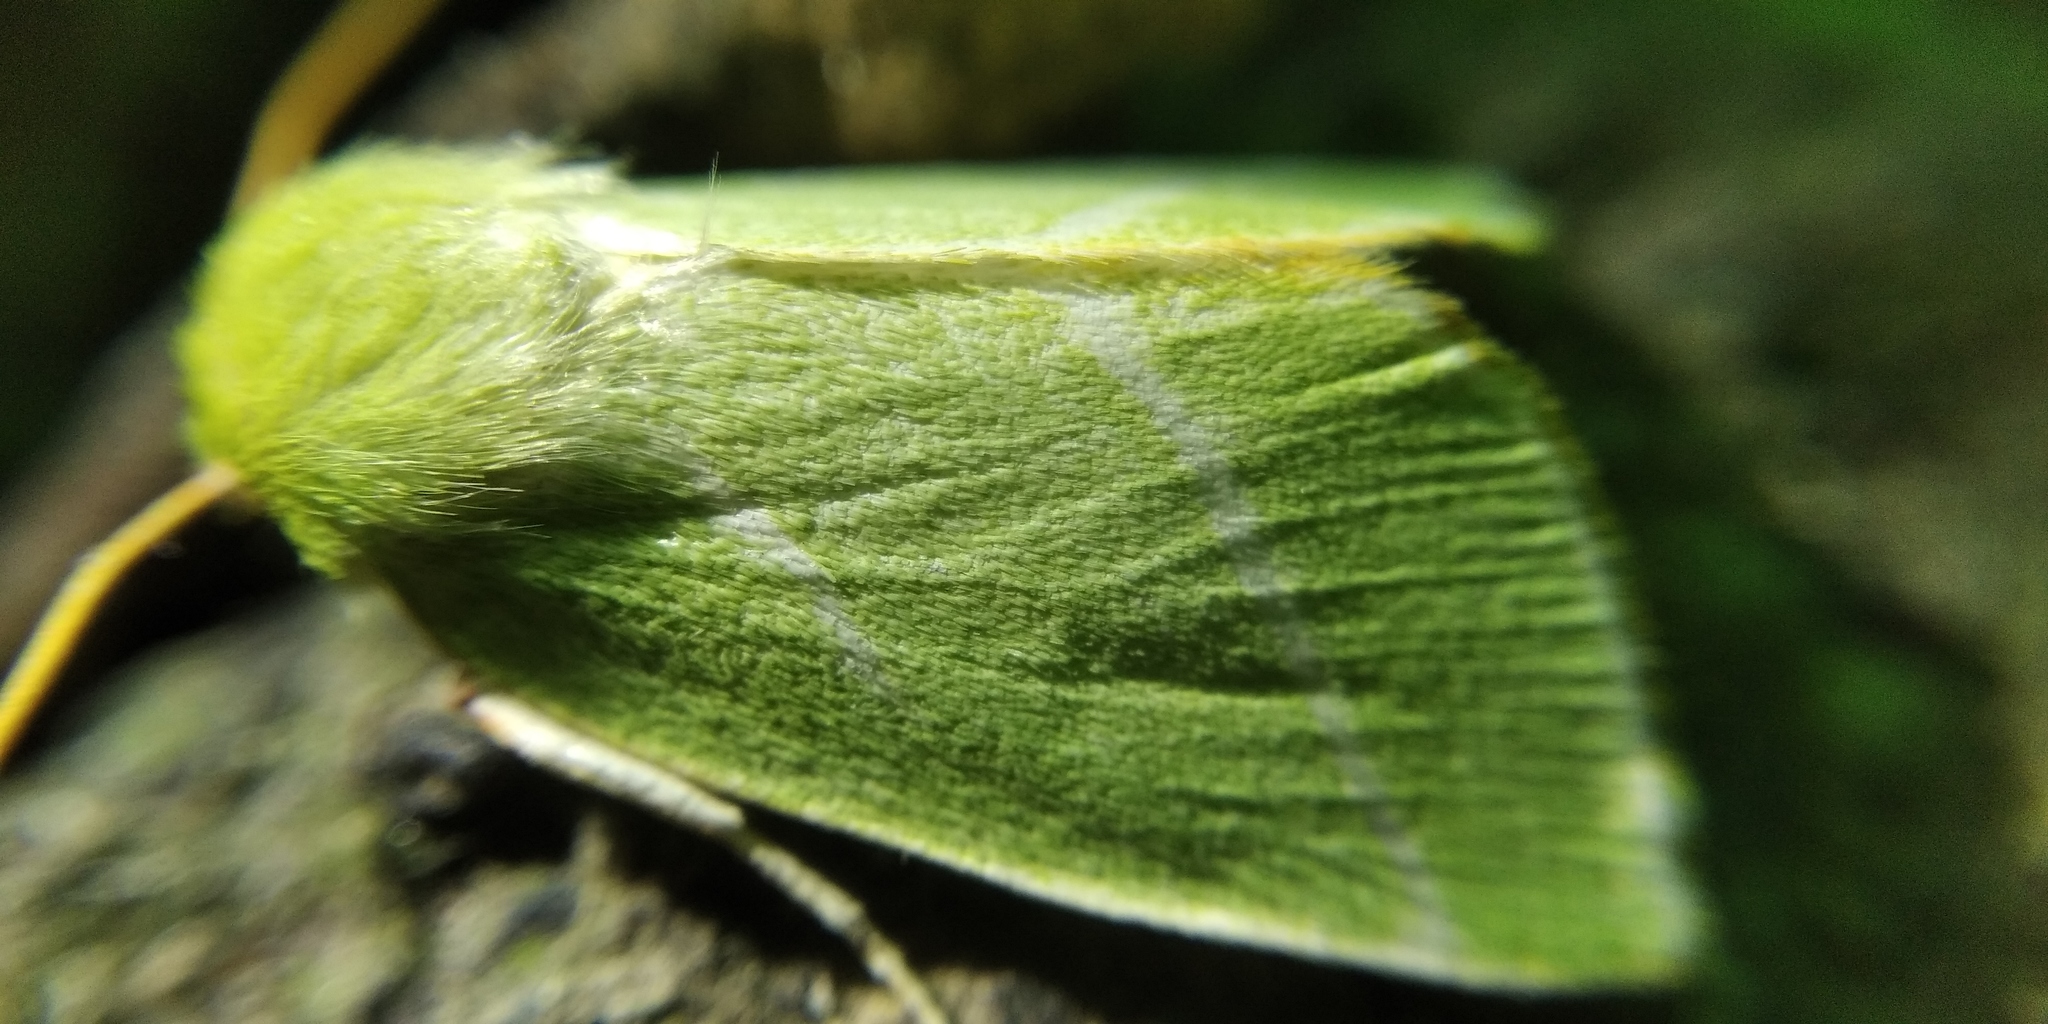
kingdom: Animalia
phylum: Arthropoda
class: Insecta
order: Lepidoptera
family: Nolidae
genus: Pseudoips
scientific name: Pseudoips prasinana
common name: Green silver-lines
